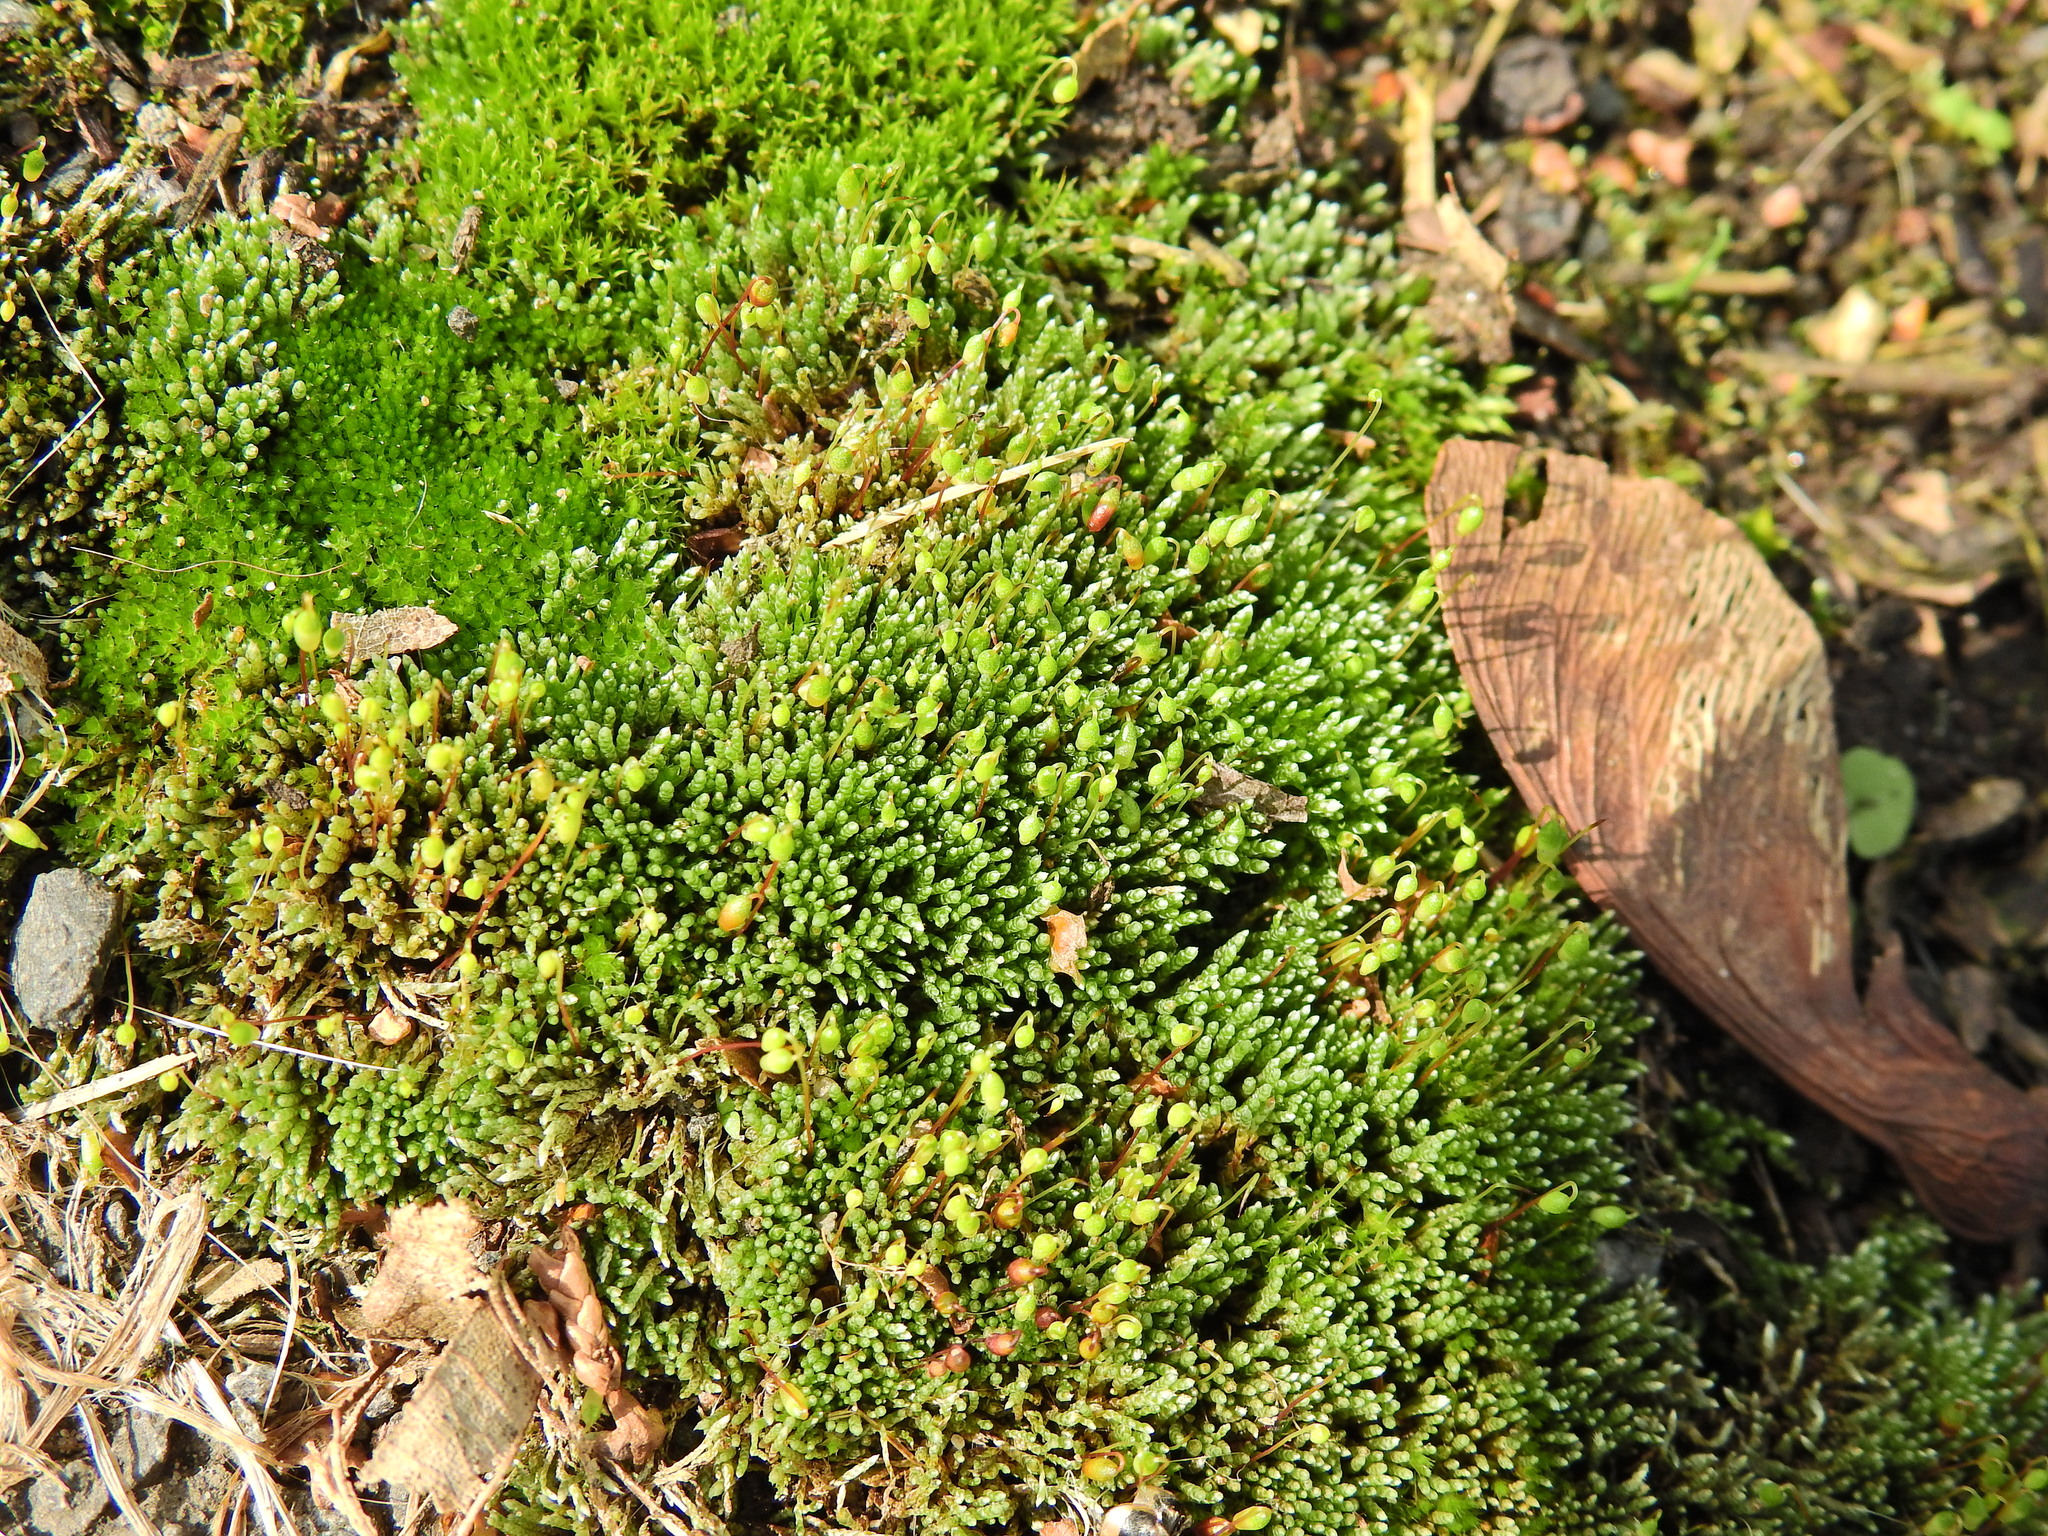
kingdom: Plantae
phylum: Bryophyta
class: Bryopsida
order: Bryales
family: Bryaceae
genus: Bryum
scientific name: Bryum argenteum
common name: Silver-moss
